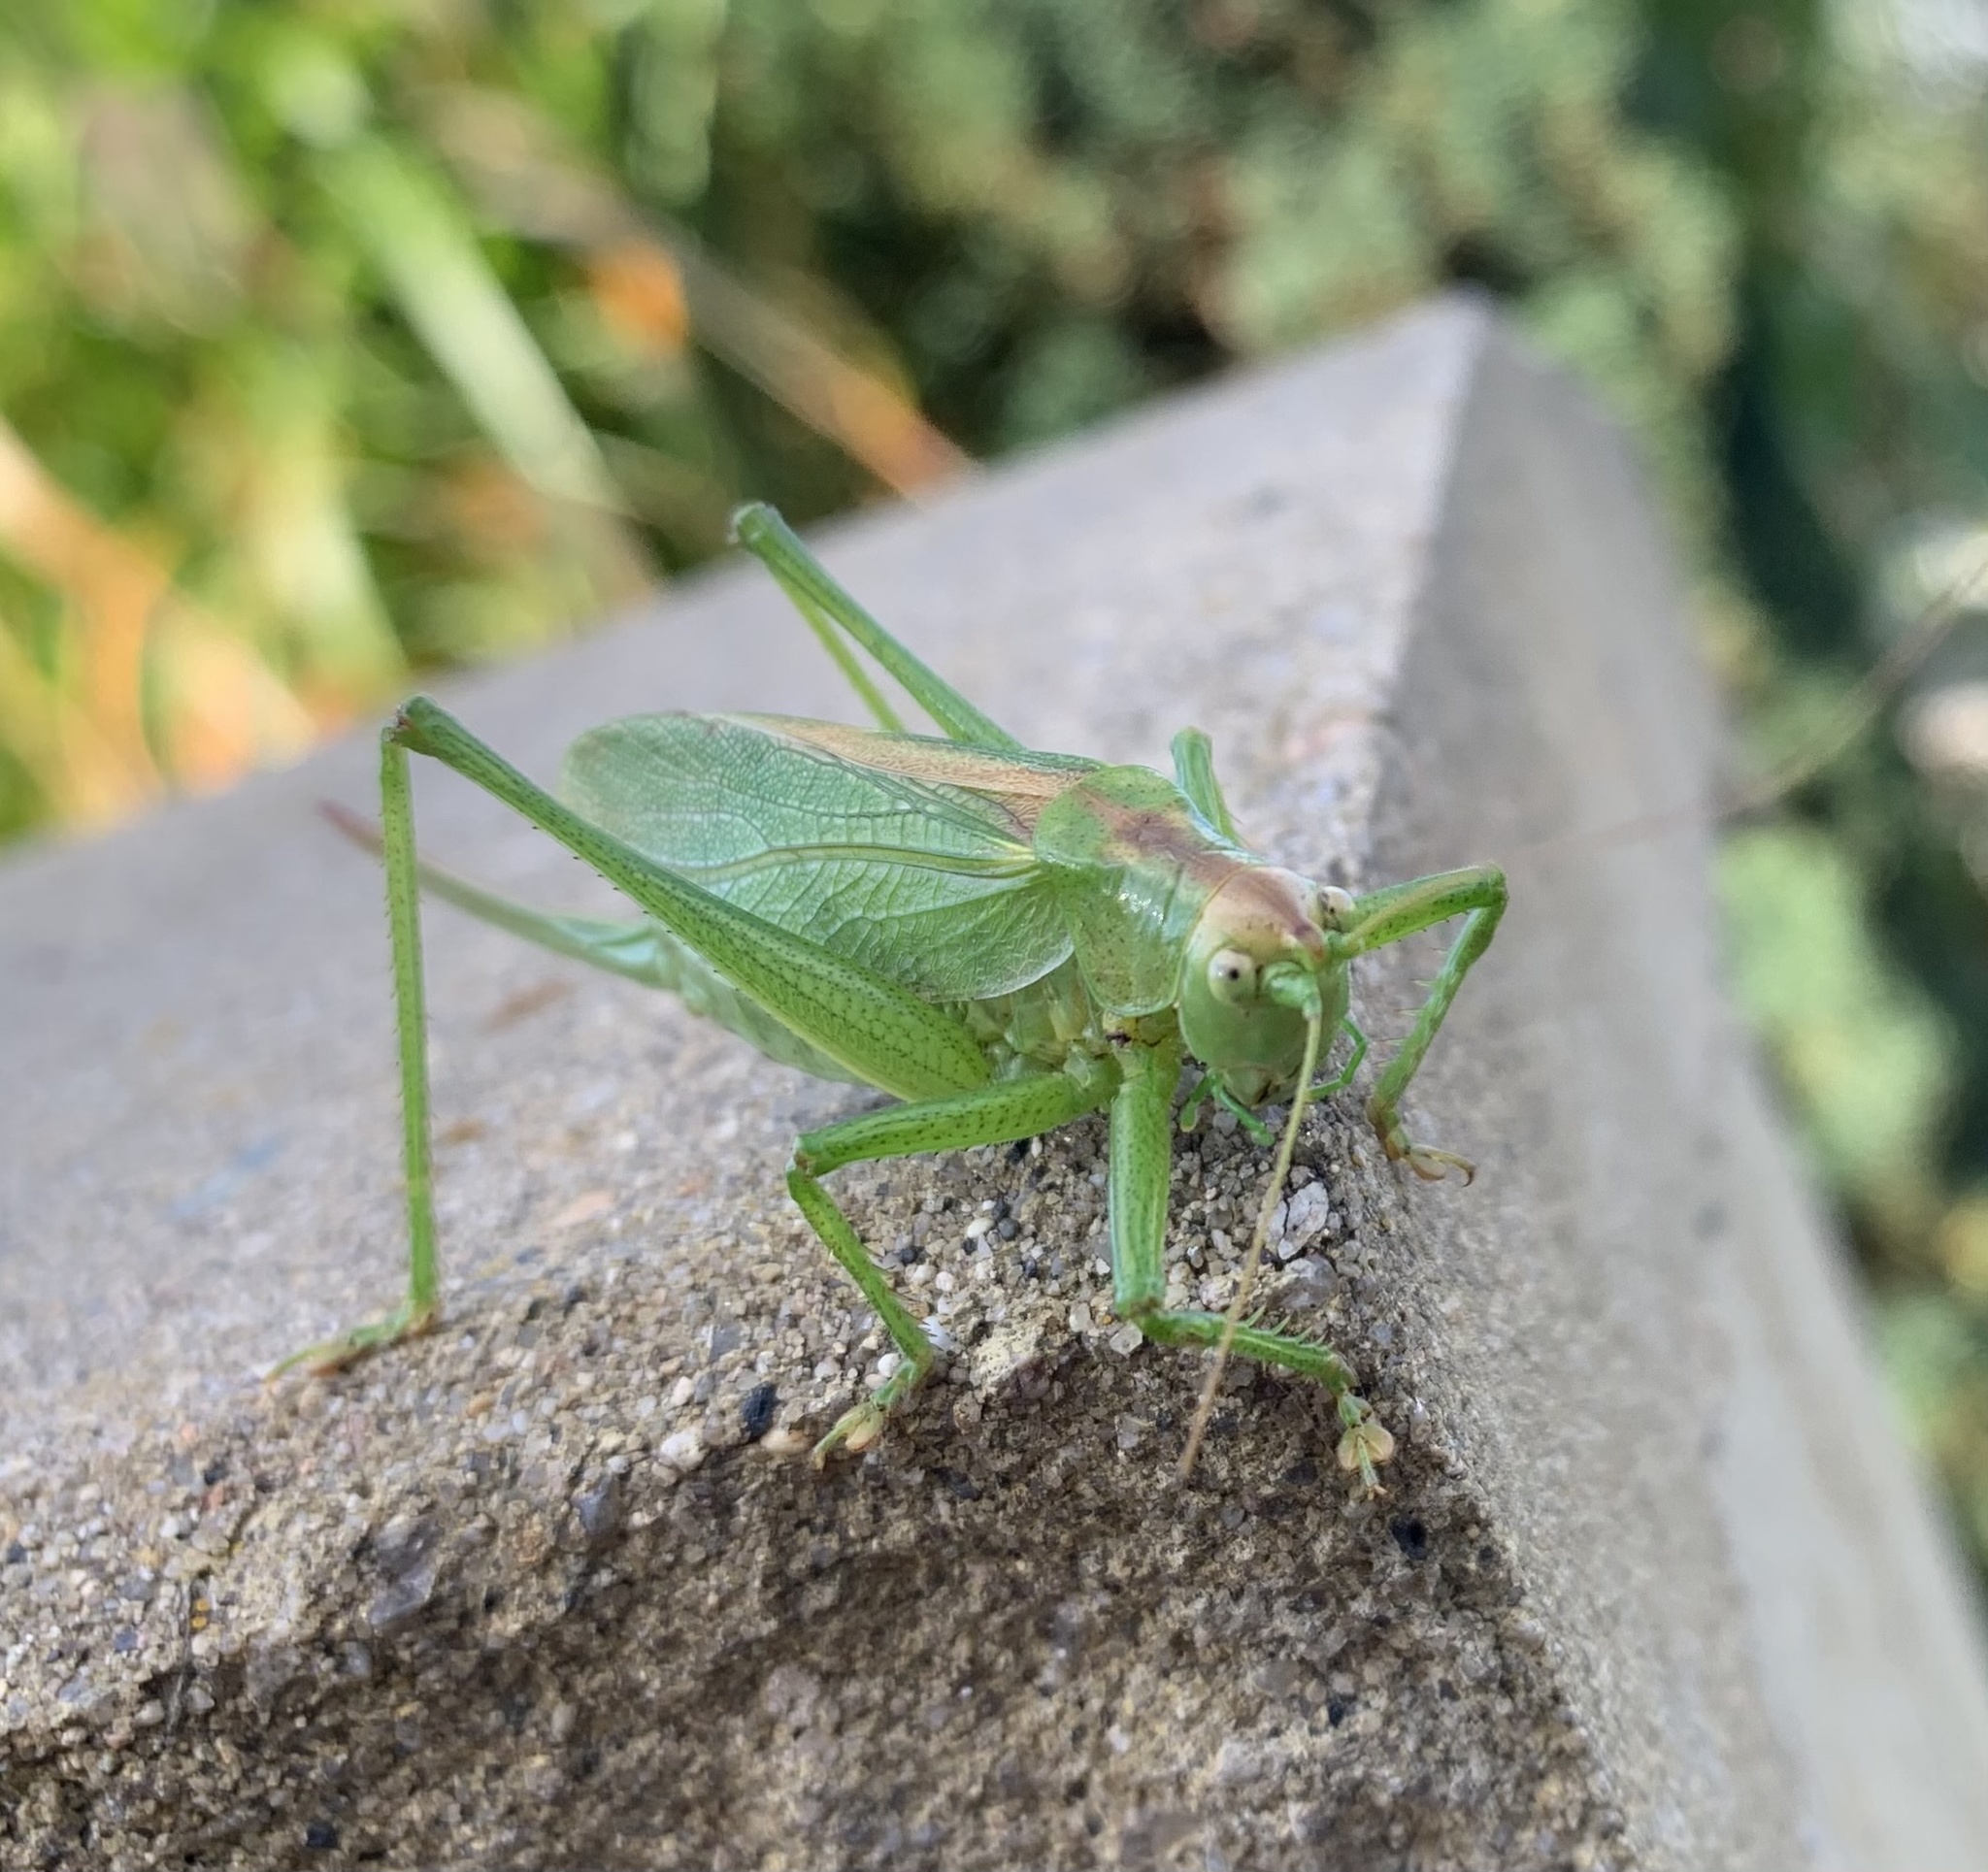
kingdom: Animalia
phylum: Arthropoda
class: Insecta
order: Orthoptera
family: Tettigoniidae
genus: Tettigonia
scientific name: Tettigonia cantans
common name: Upland green bush-cricket
